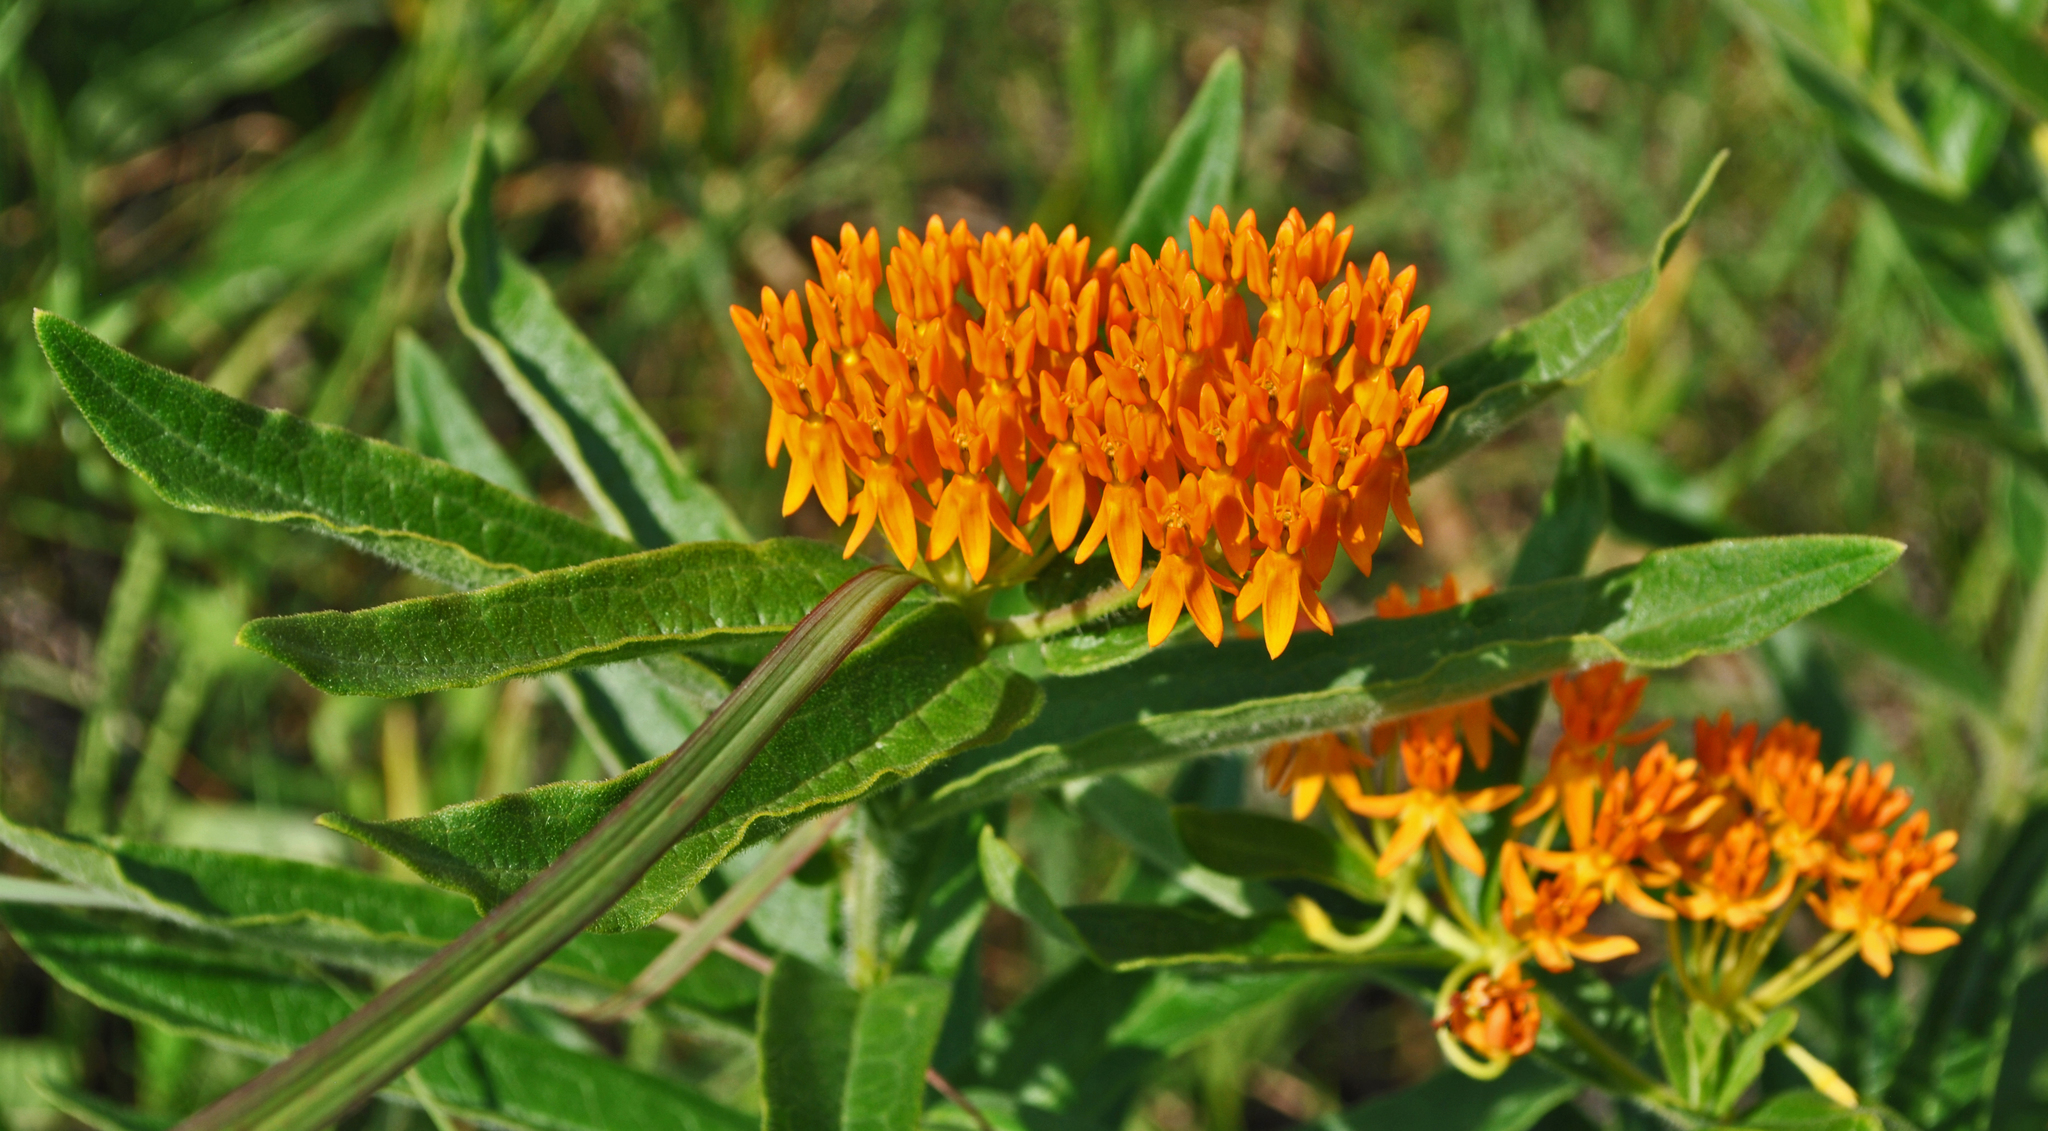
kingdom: Plantae
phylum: Tracheophyta
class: Magnoliopsida
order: Gentianales
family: Apocynaceae
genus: Asclepias
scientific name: Asclepias tuberosa
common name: Butterfly milkweed
